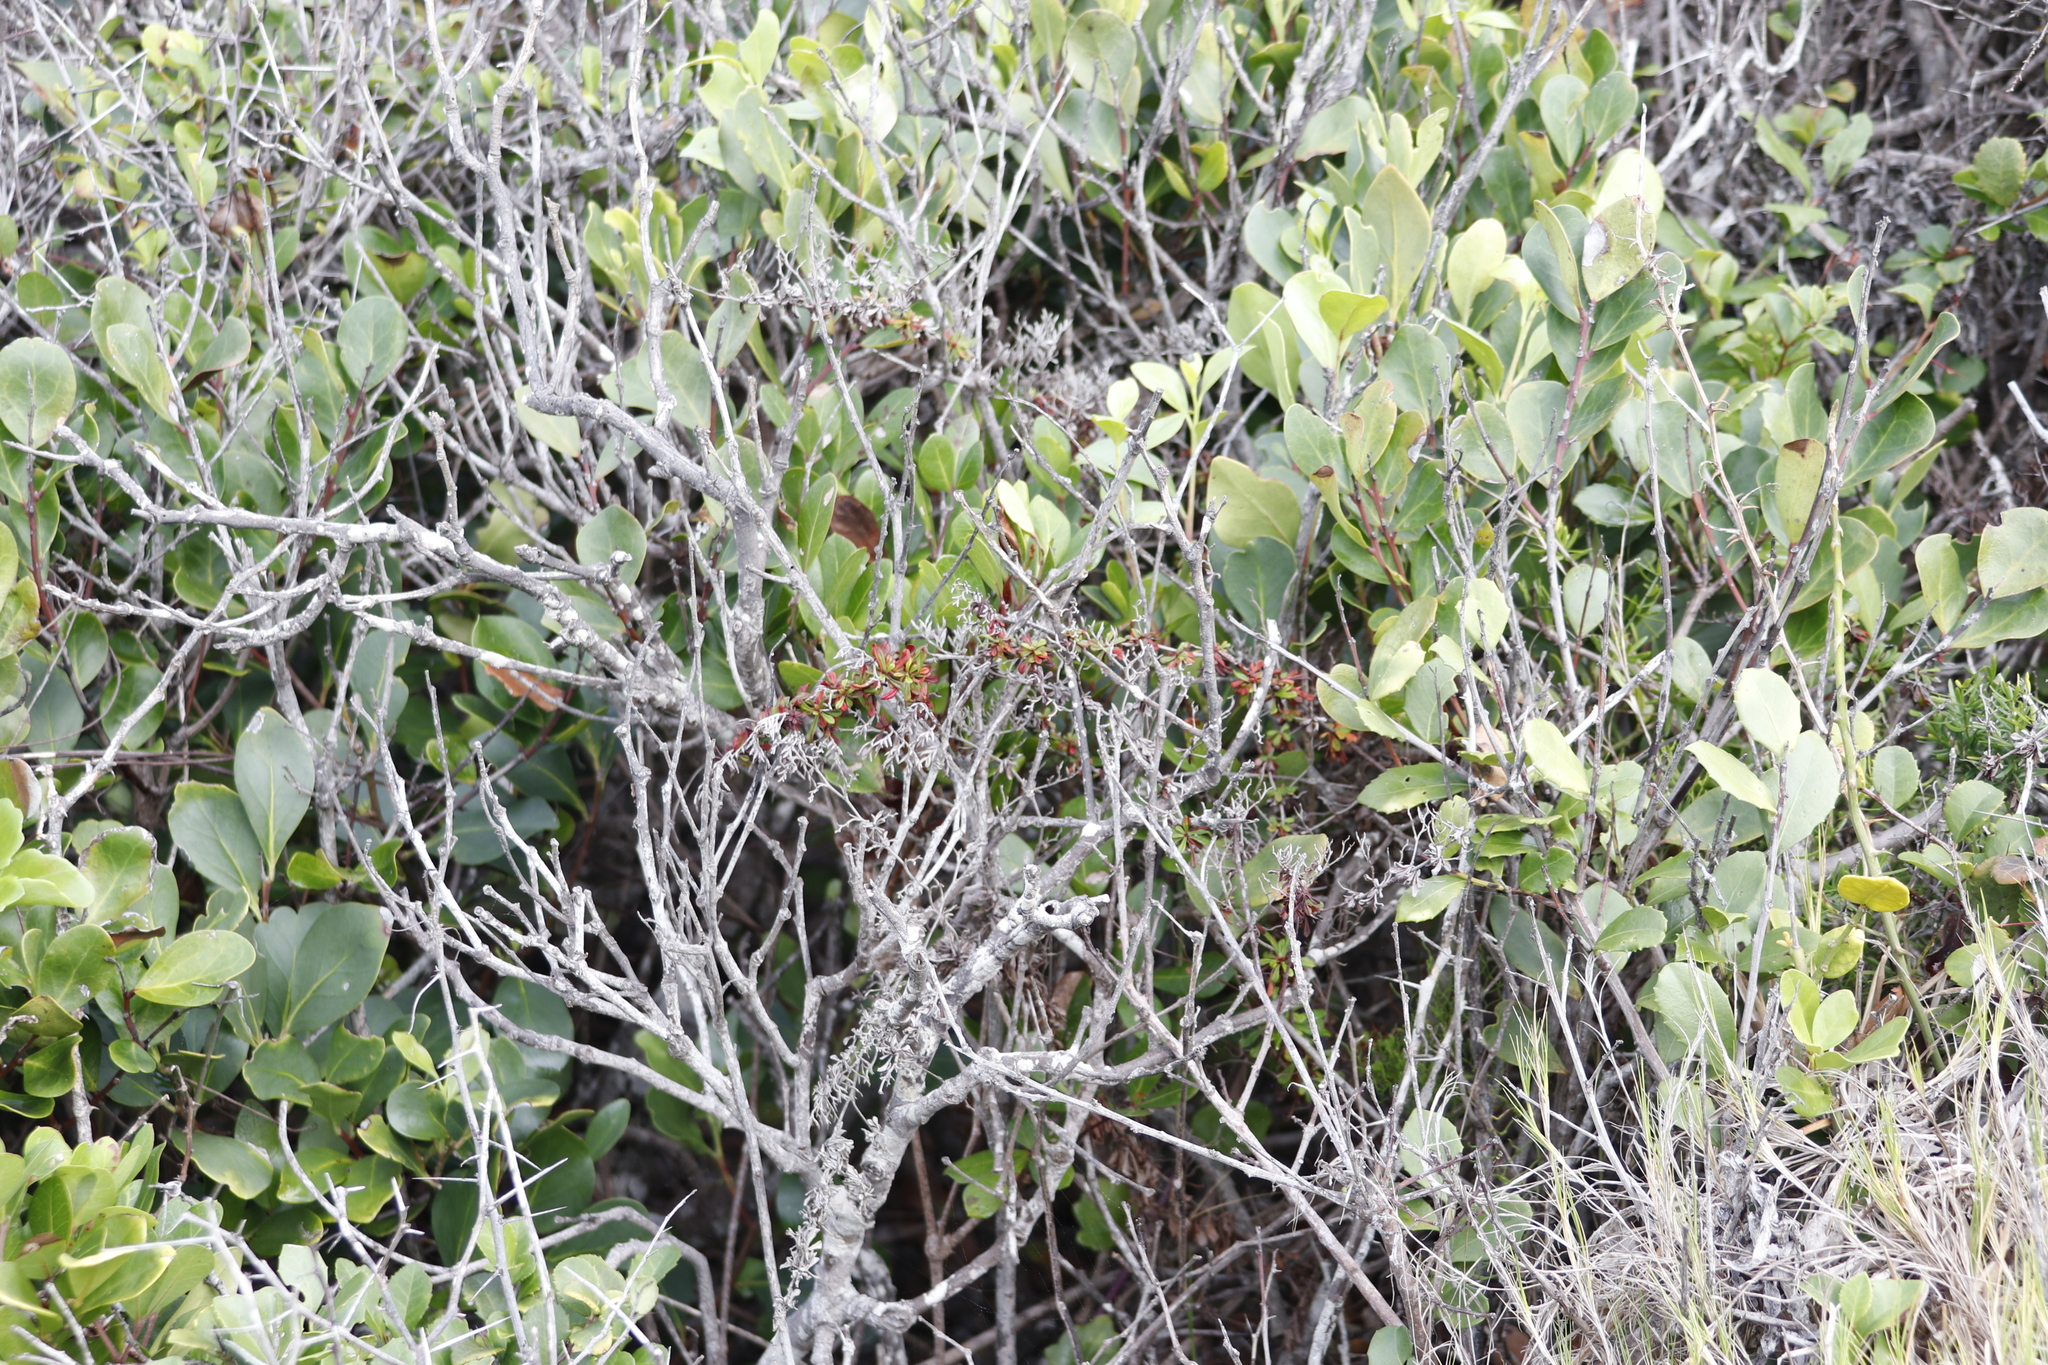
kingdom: Plantae
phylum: Tracheophyta
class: Magnoliopsida
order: Caryophyllales
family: Plumbaginaceae
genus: Limonium
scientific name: Limonium scabrum
